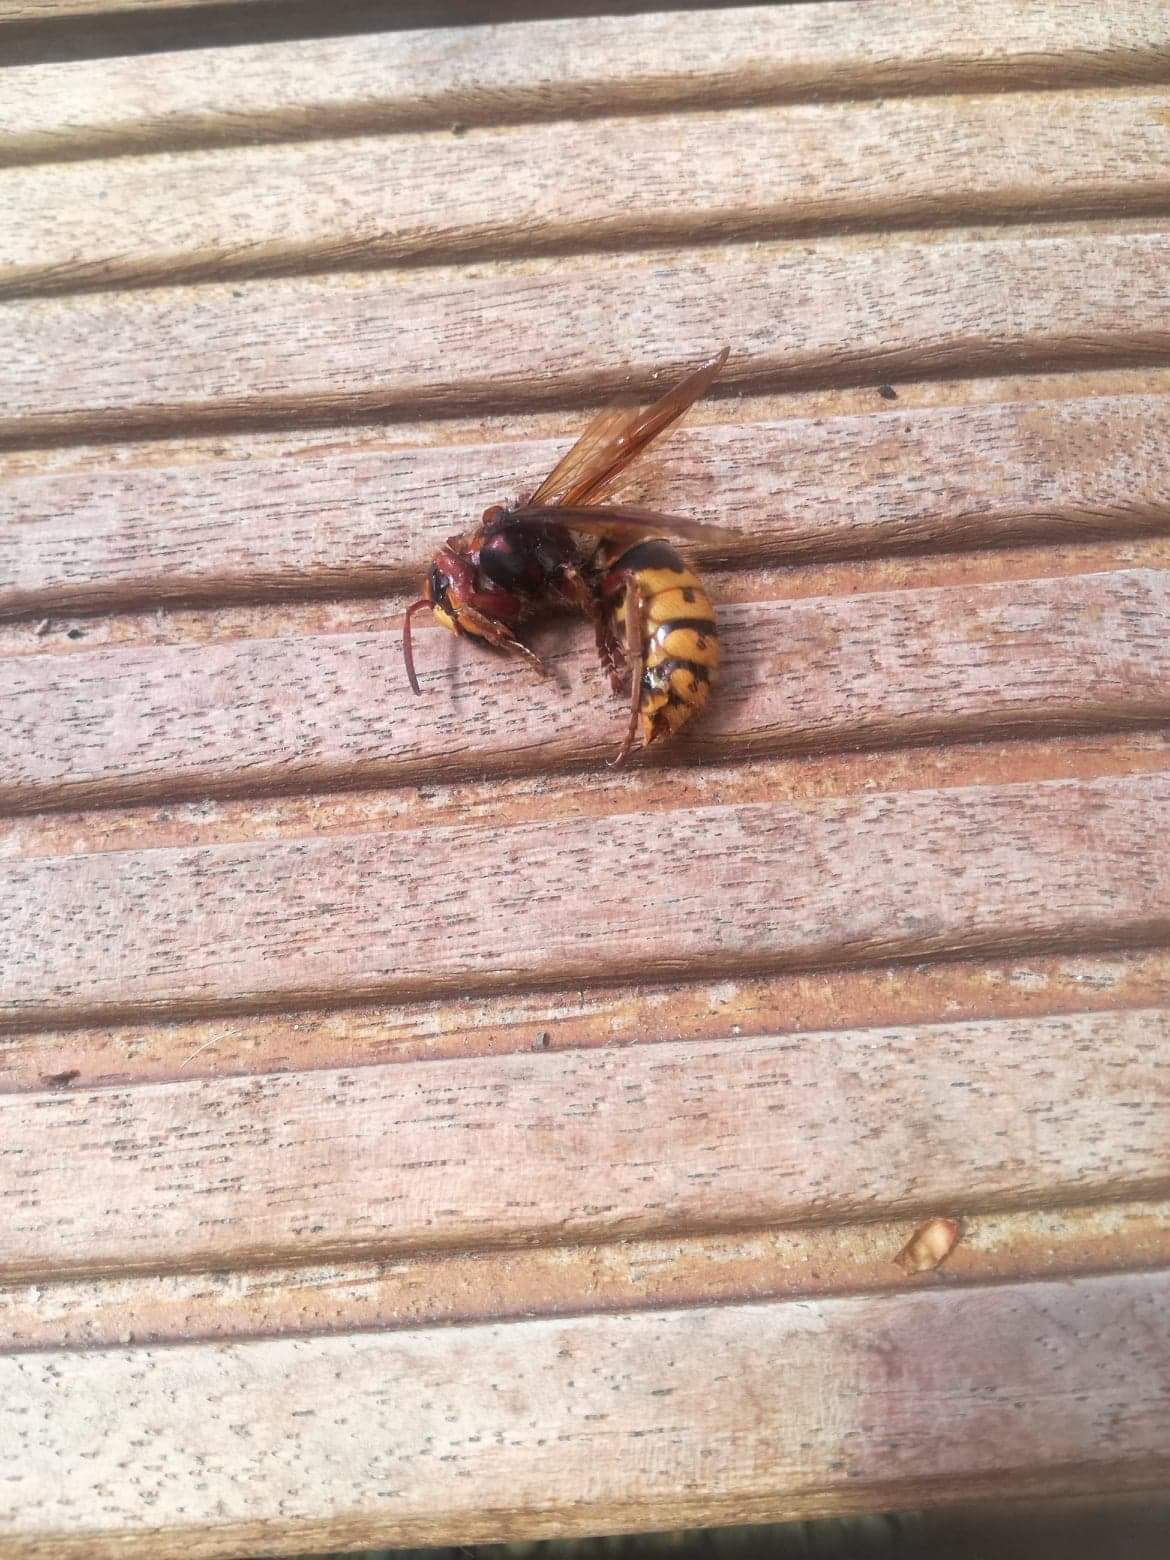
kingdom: Animalia
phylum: Arthropoda
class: Insecta
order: Hymenoptera
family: Vespidae
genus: Vespa
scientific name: Vespa crabro
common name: Hornet
